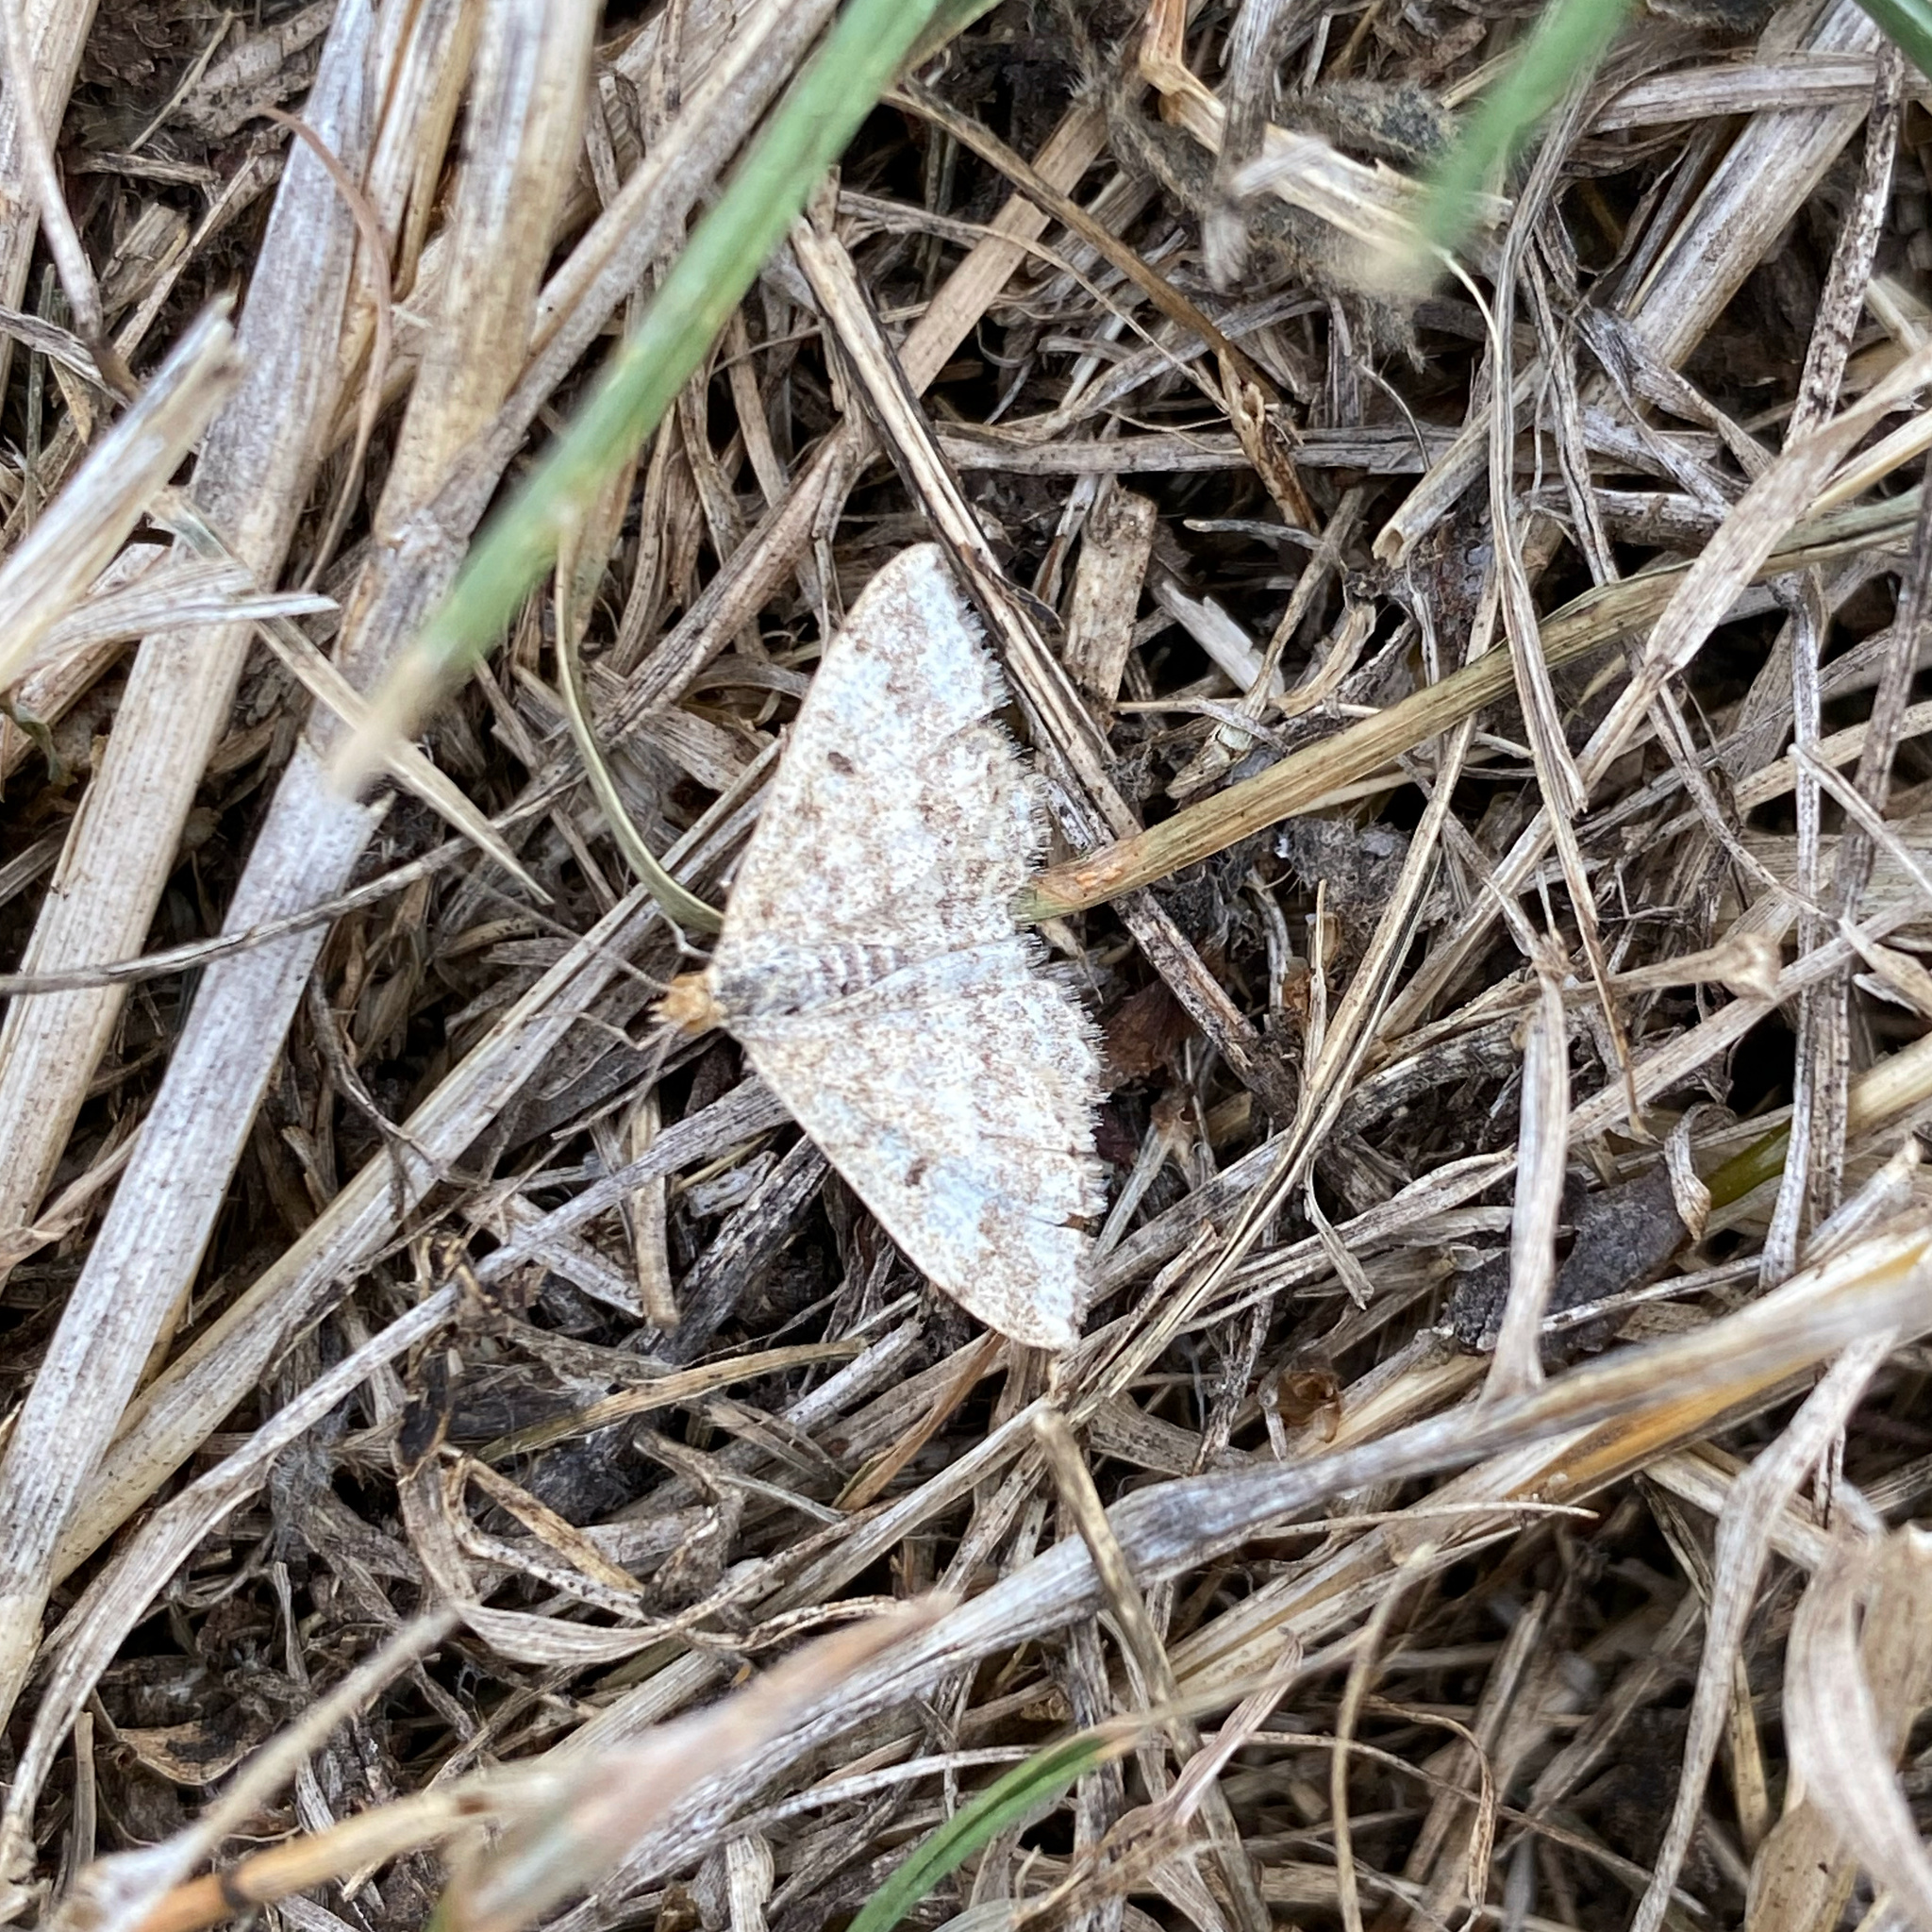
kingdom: Animalia
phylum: Arthropoda
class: Insecta
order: Lepidoptera
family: Geometridae
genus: Scopula
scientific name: Scopula rubraria
